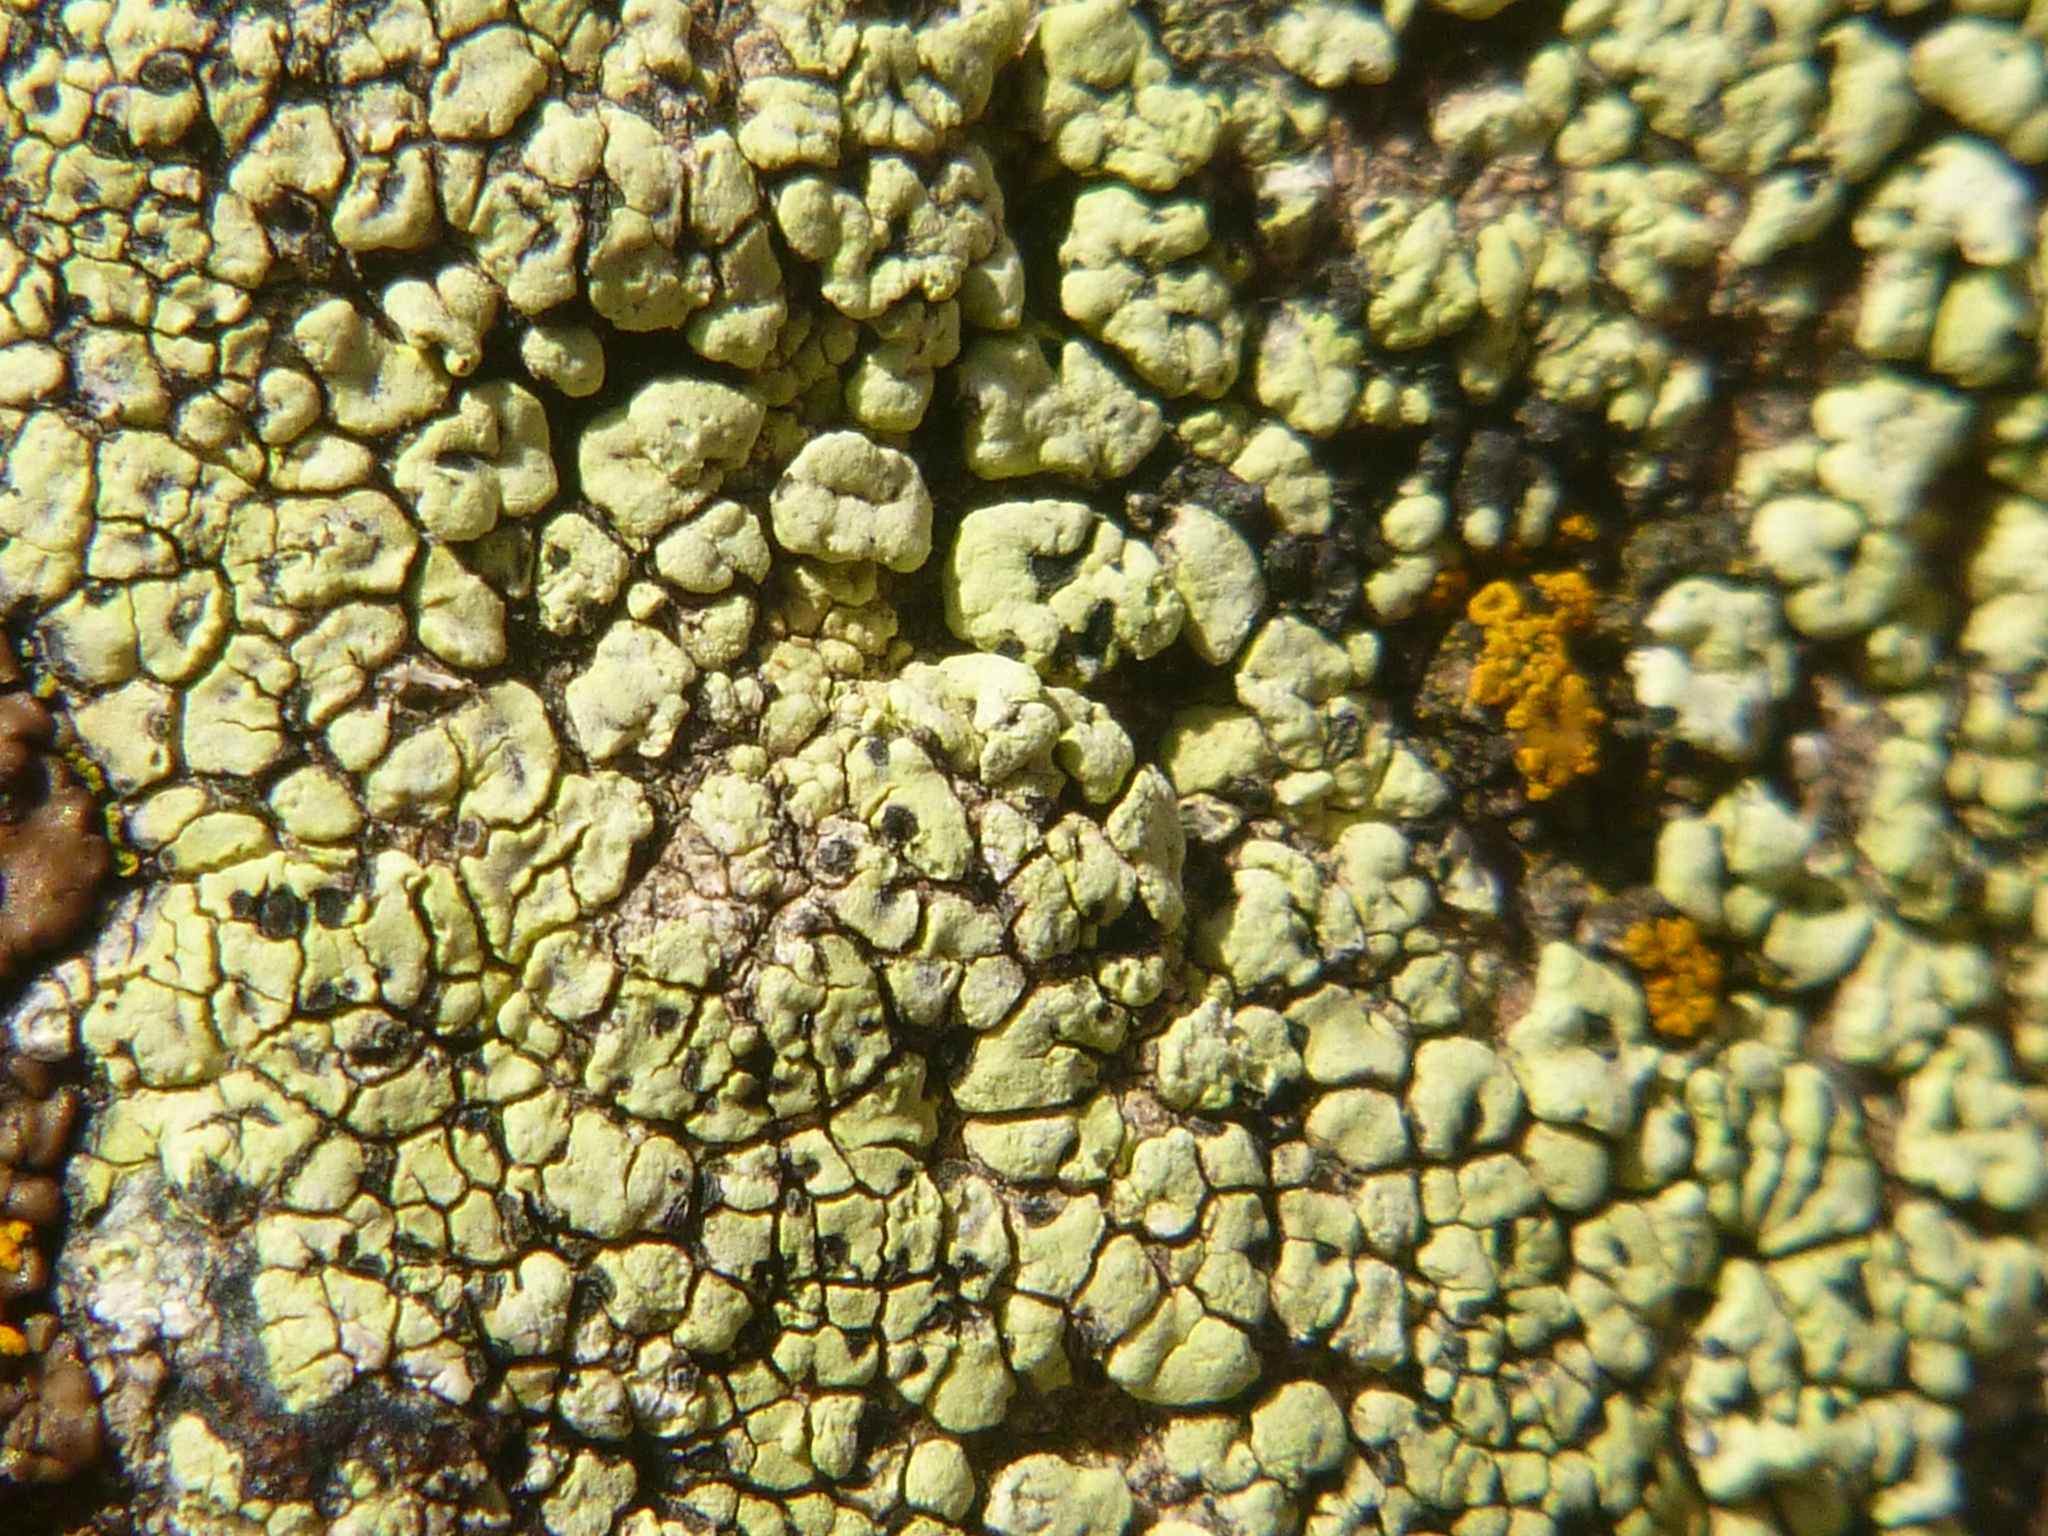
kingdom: Fungi
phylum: Ascomycota
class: Lecanoromycetes
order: Rhizocarpales
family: Rhizocarpaceae
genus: Rhizocarpon
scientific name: Rhizocarpon geographicum
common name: Yellow map lichen
